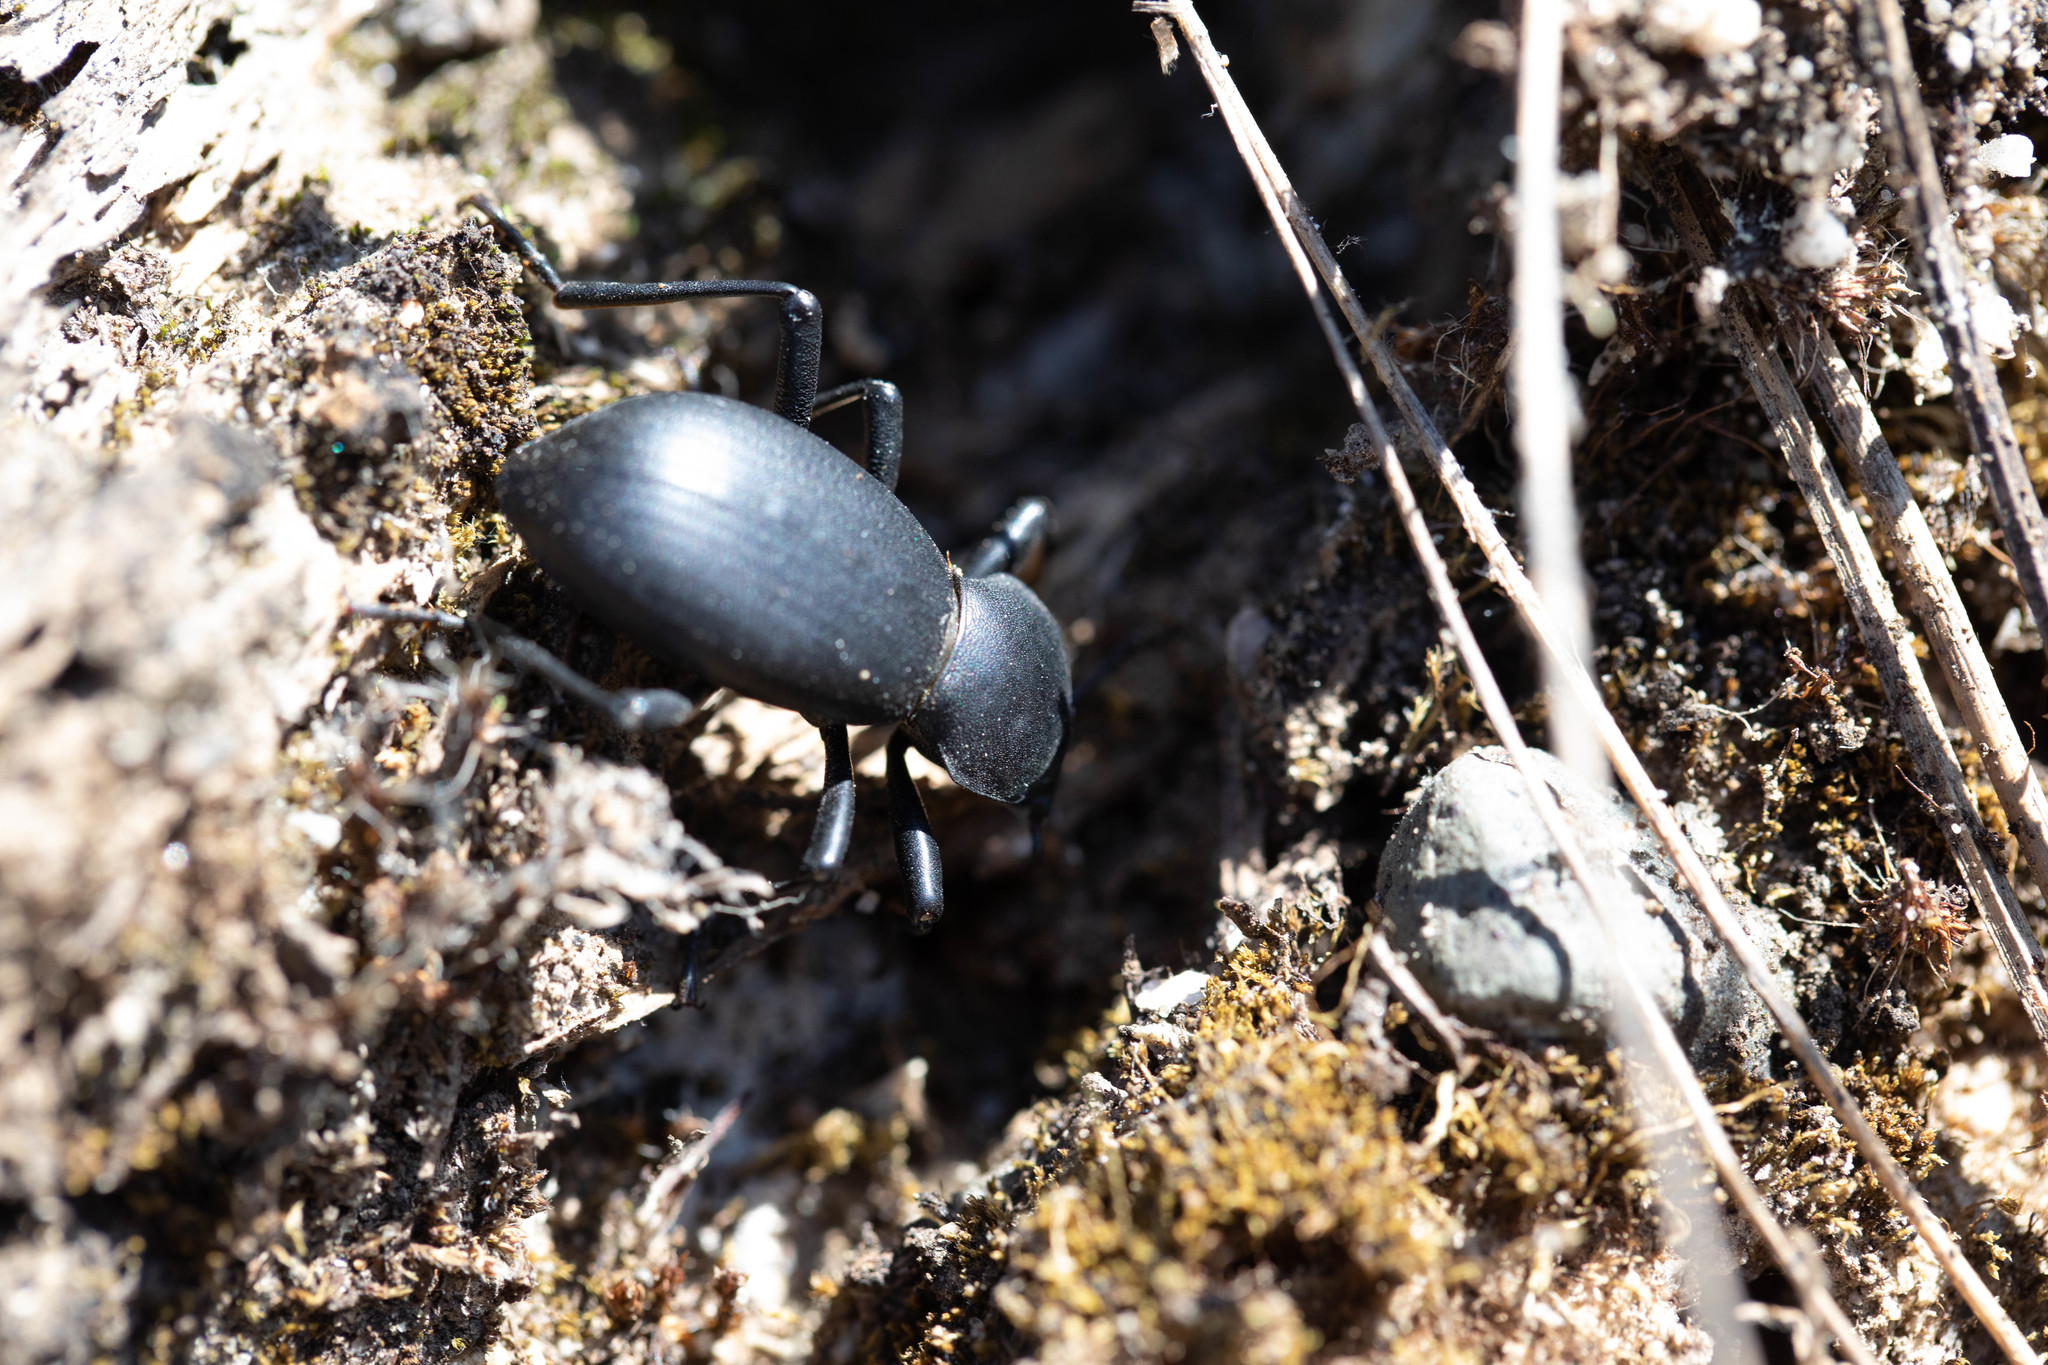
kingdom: Animalia
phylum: Arthropoda
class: Insecta
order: Coleoptera
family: Tenebrionidae
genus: Coelocnemis
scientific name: Coelocnemis dilaticollis
